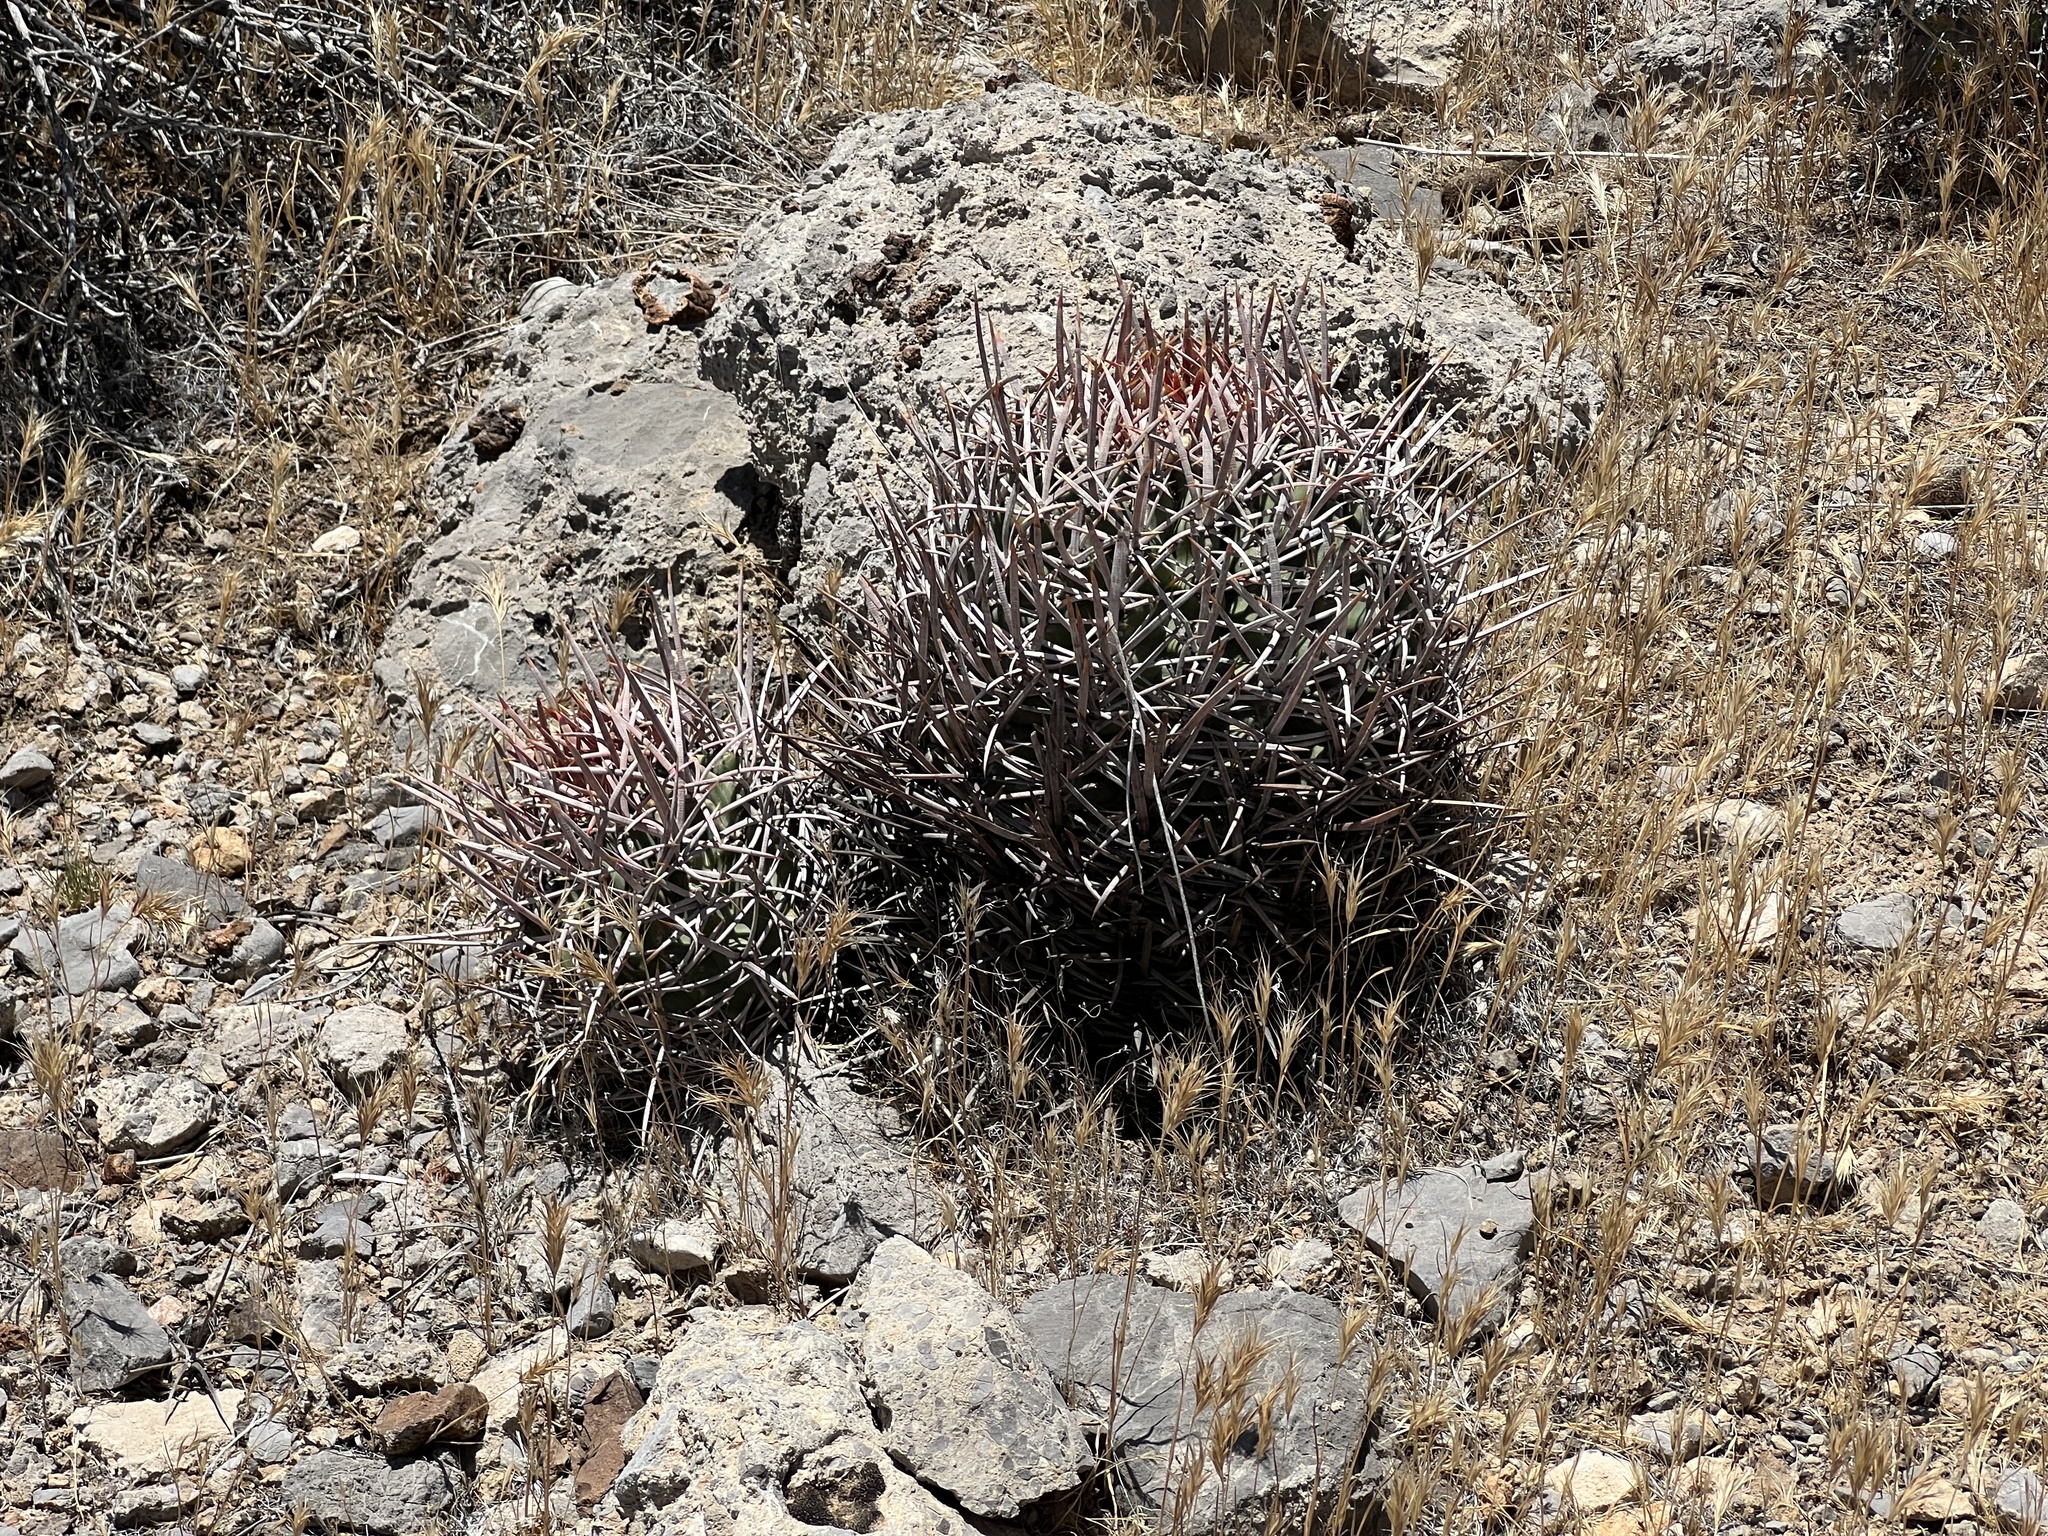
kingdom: Plantae
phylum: Tracheophyta
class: Magnoliopsida
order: Caryophyllales
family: Cactaceae
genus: Echinocactus
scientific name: Echinocactus polycephalus
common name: Cottontop cactus
